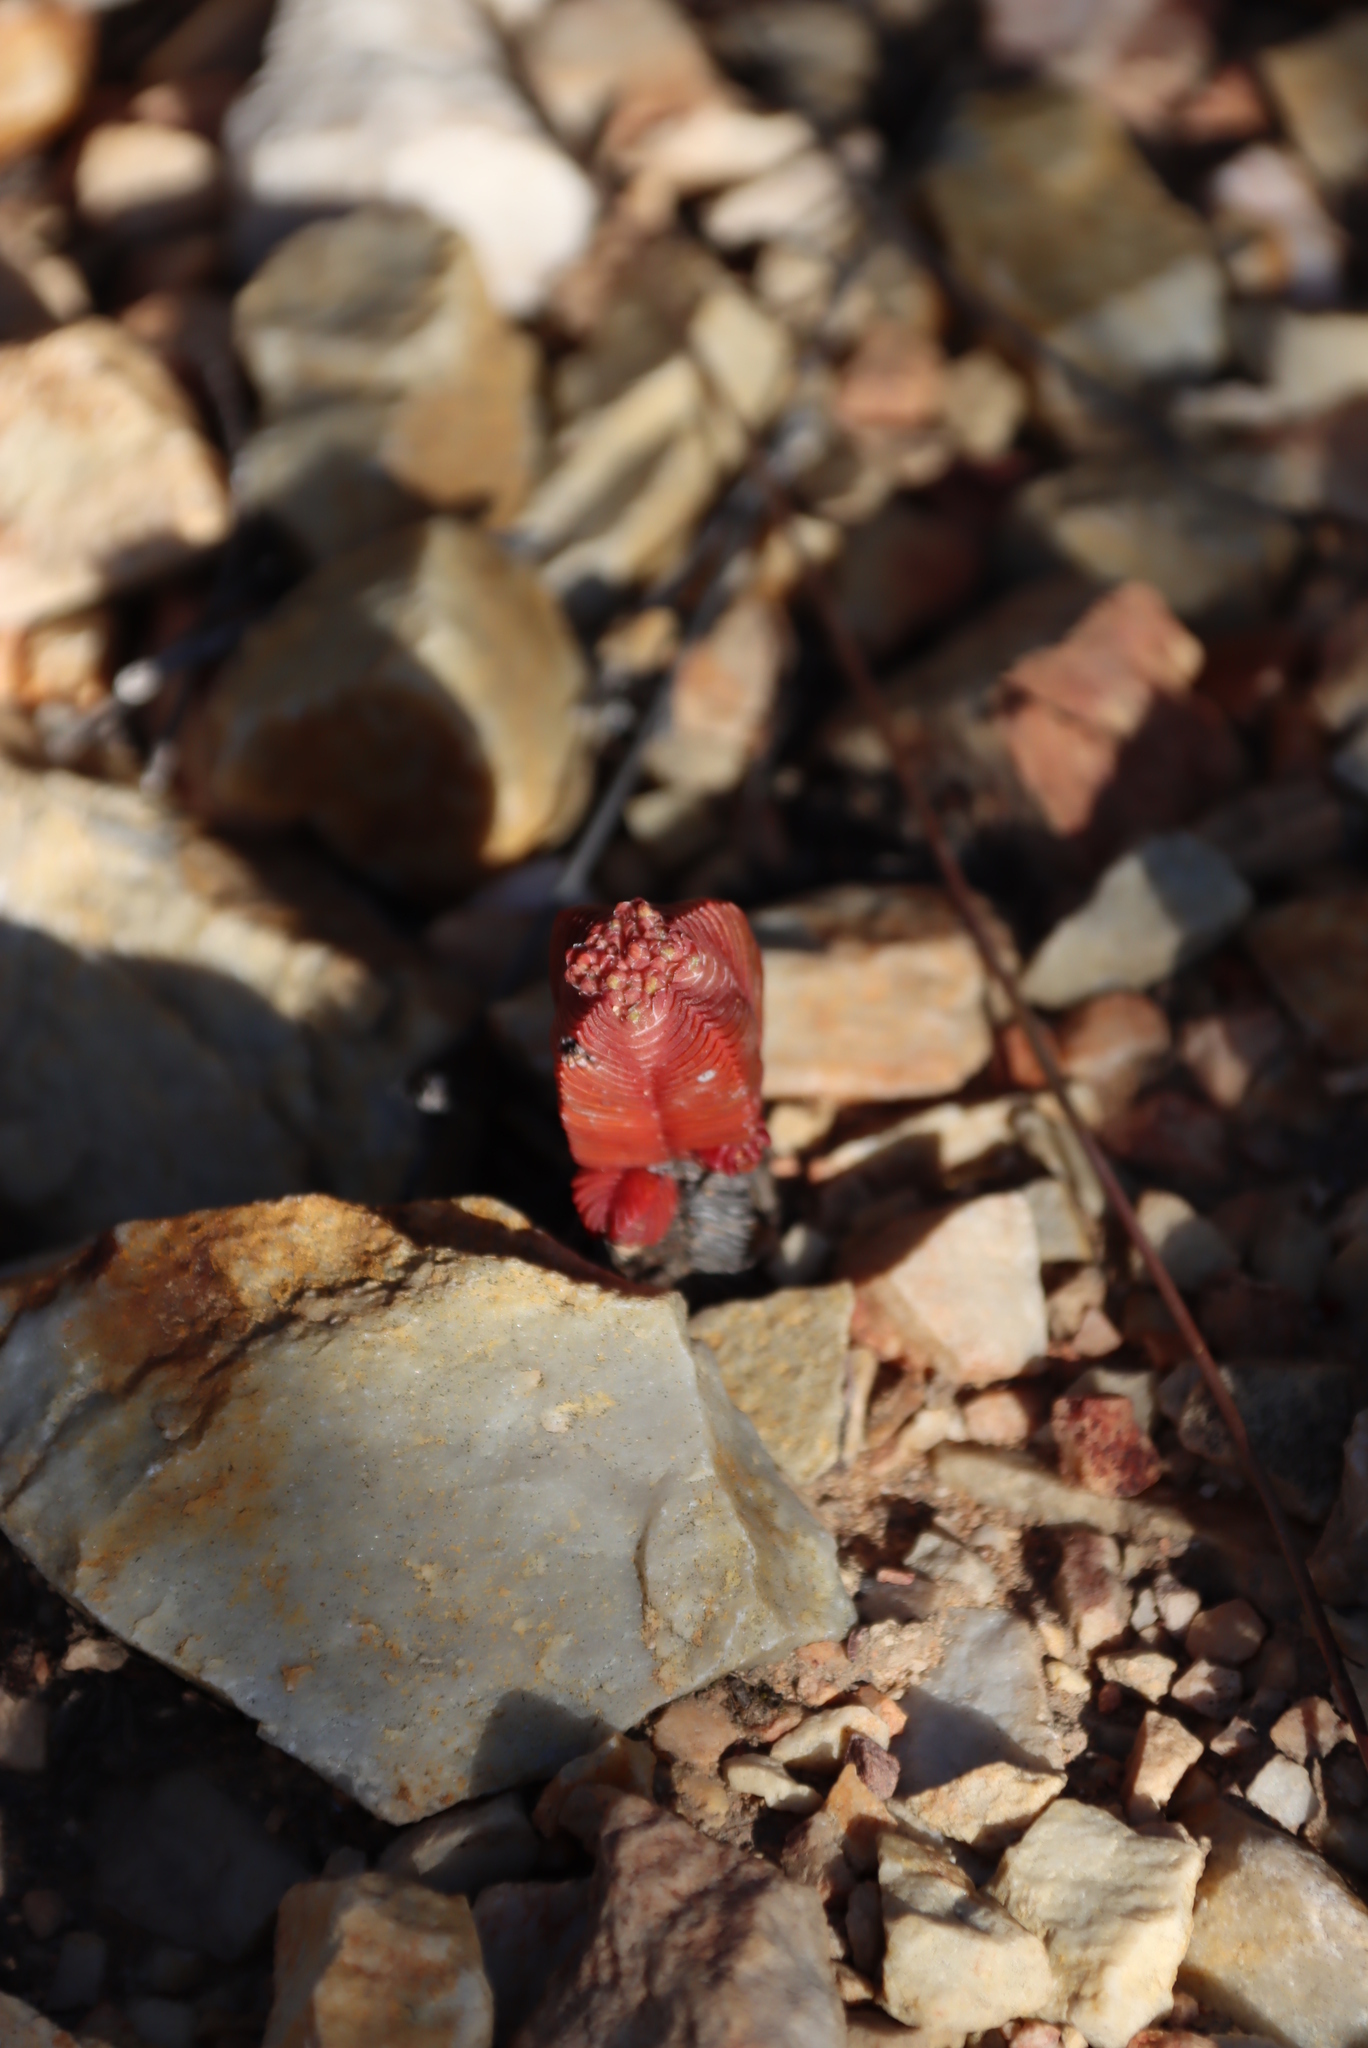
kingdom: Plantae
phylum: Tracheophyta
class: Magnoliopsida
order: Saxifragales
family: Crassulaceae
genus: Crassula
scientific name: Crassula pyramidalis
